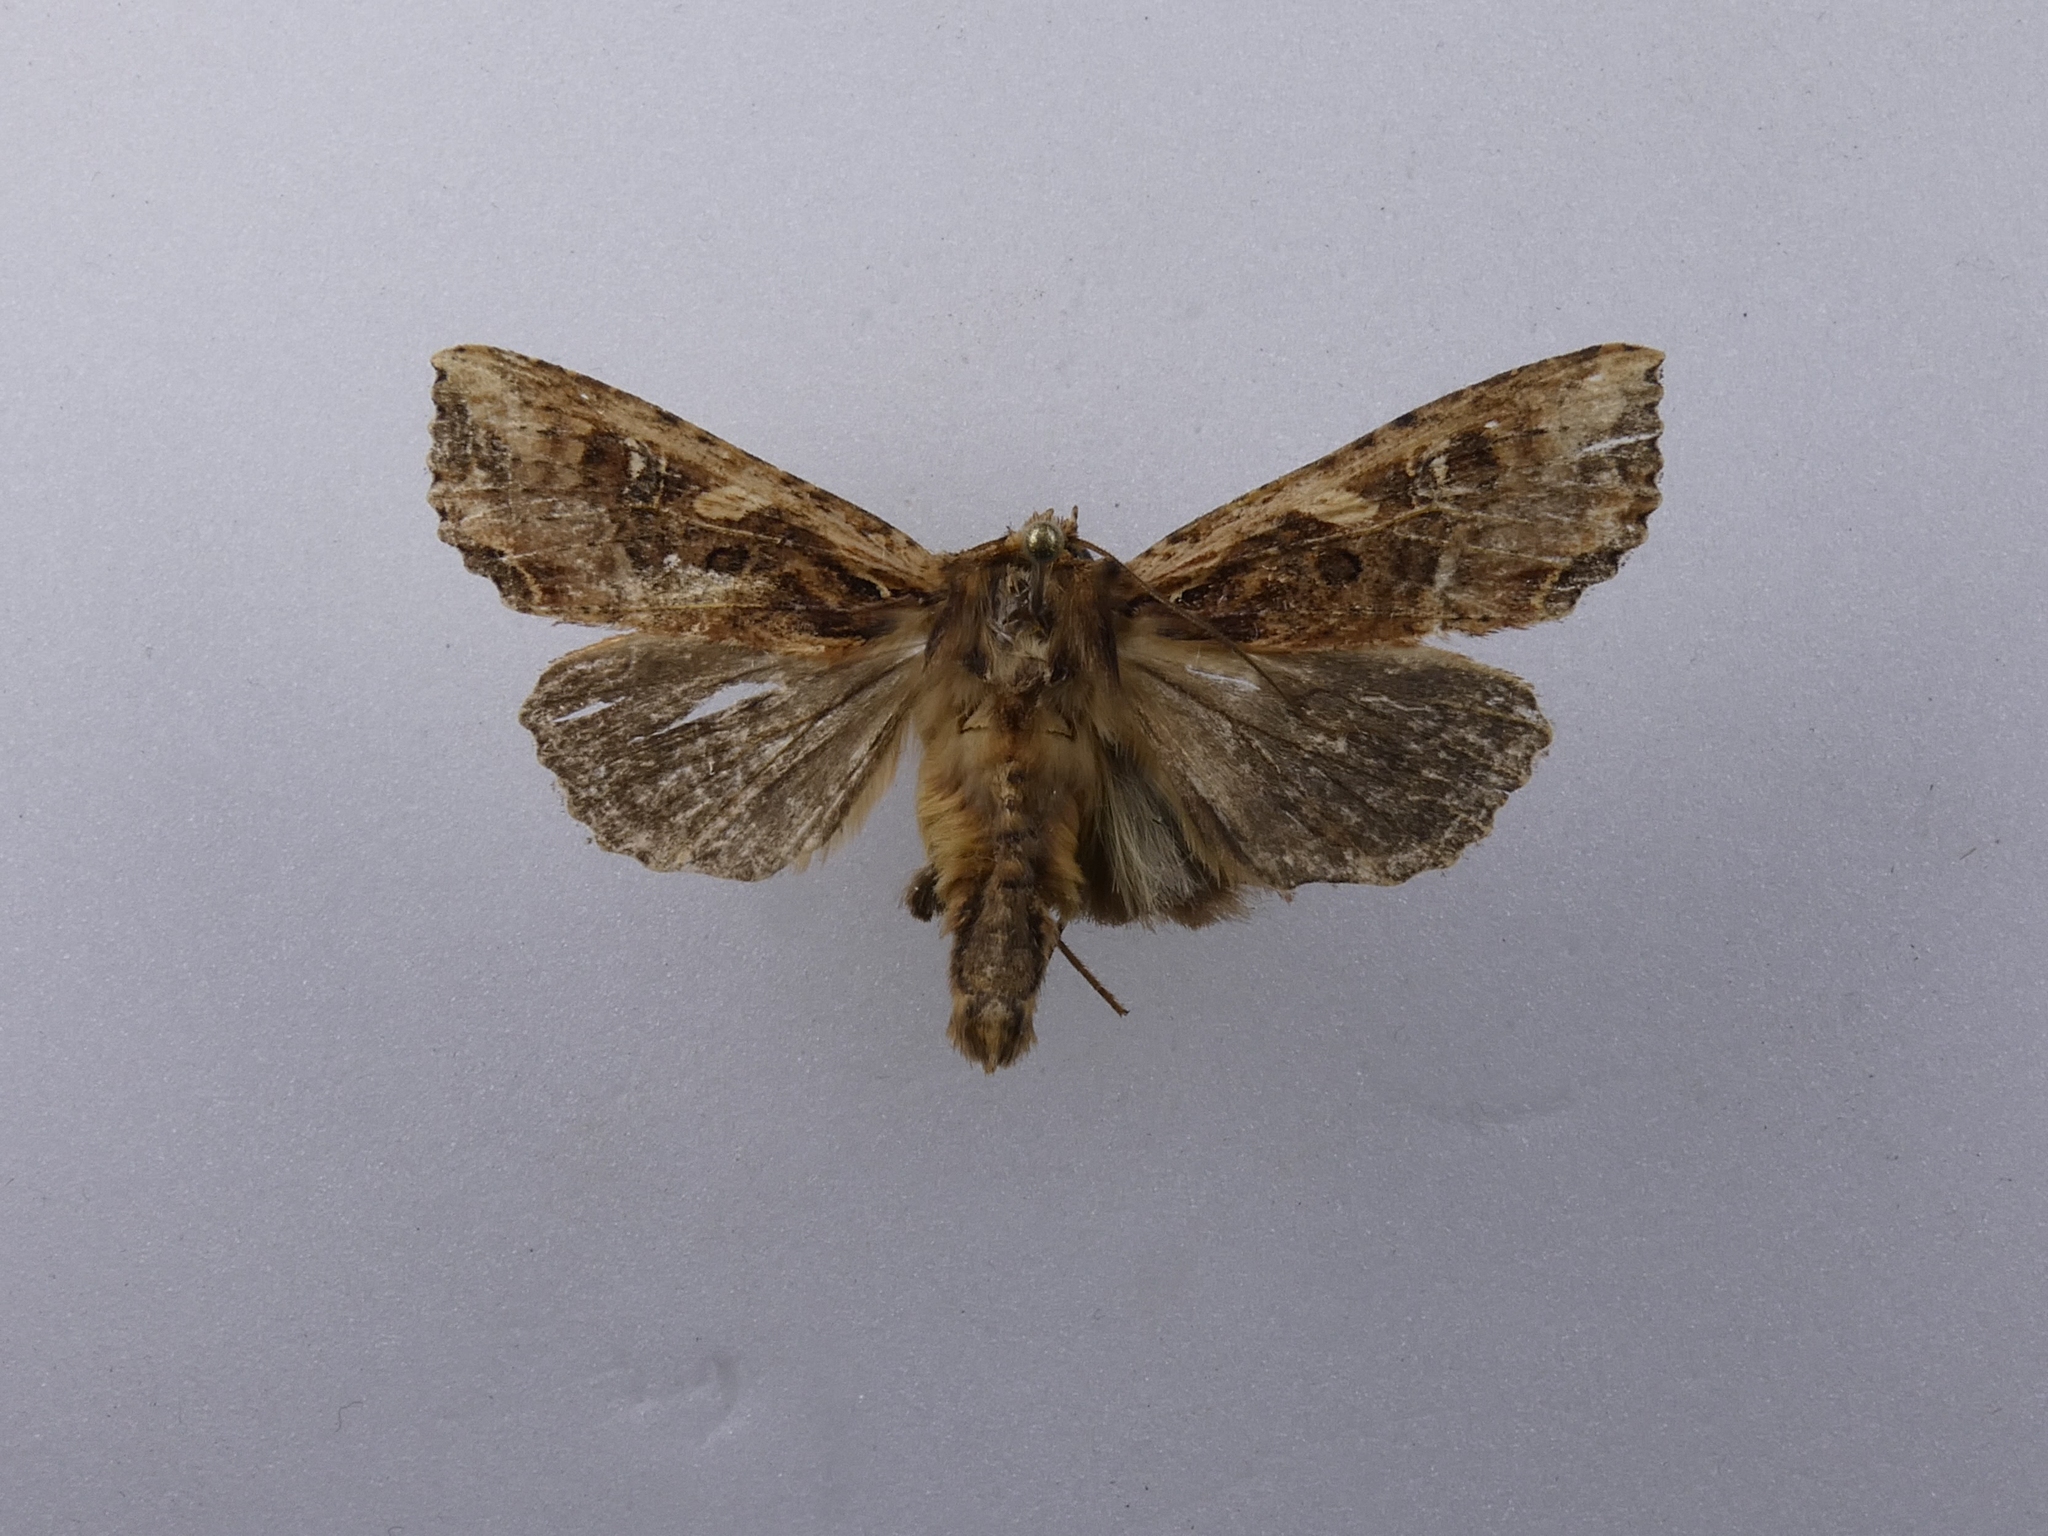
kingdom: Animalia
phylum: Arthropoda
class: Insecta
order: Lepidoptera
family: Noctuidae
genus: Meterana
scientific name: Meterana stipata
